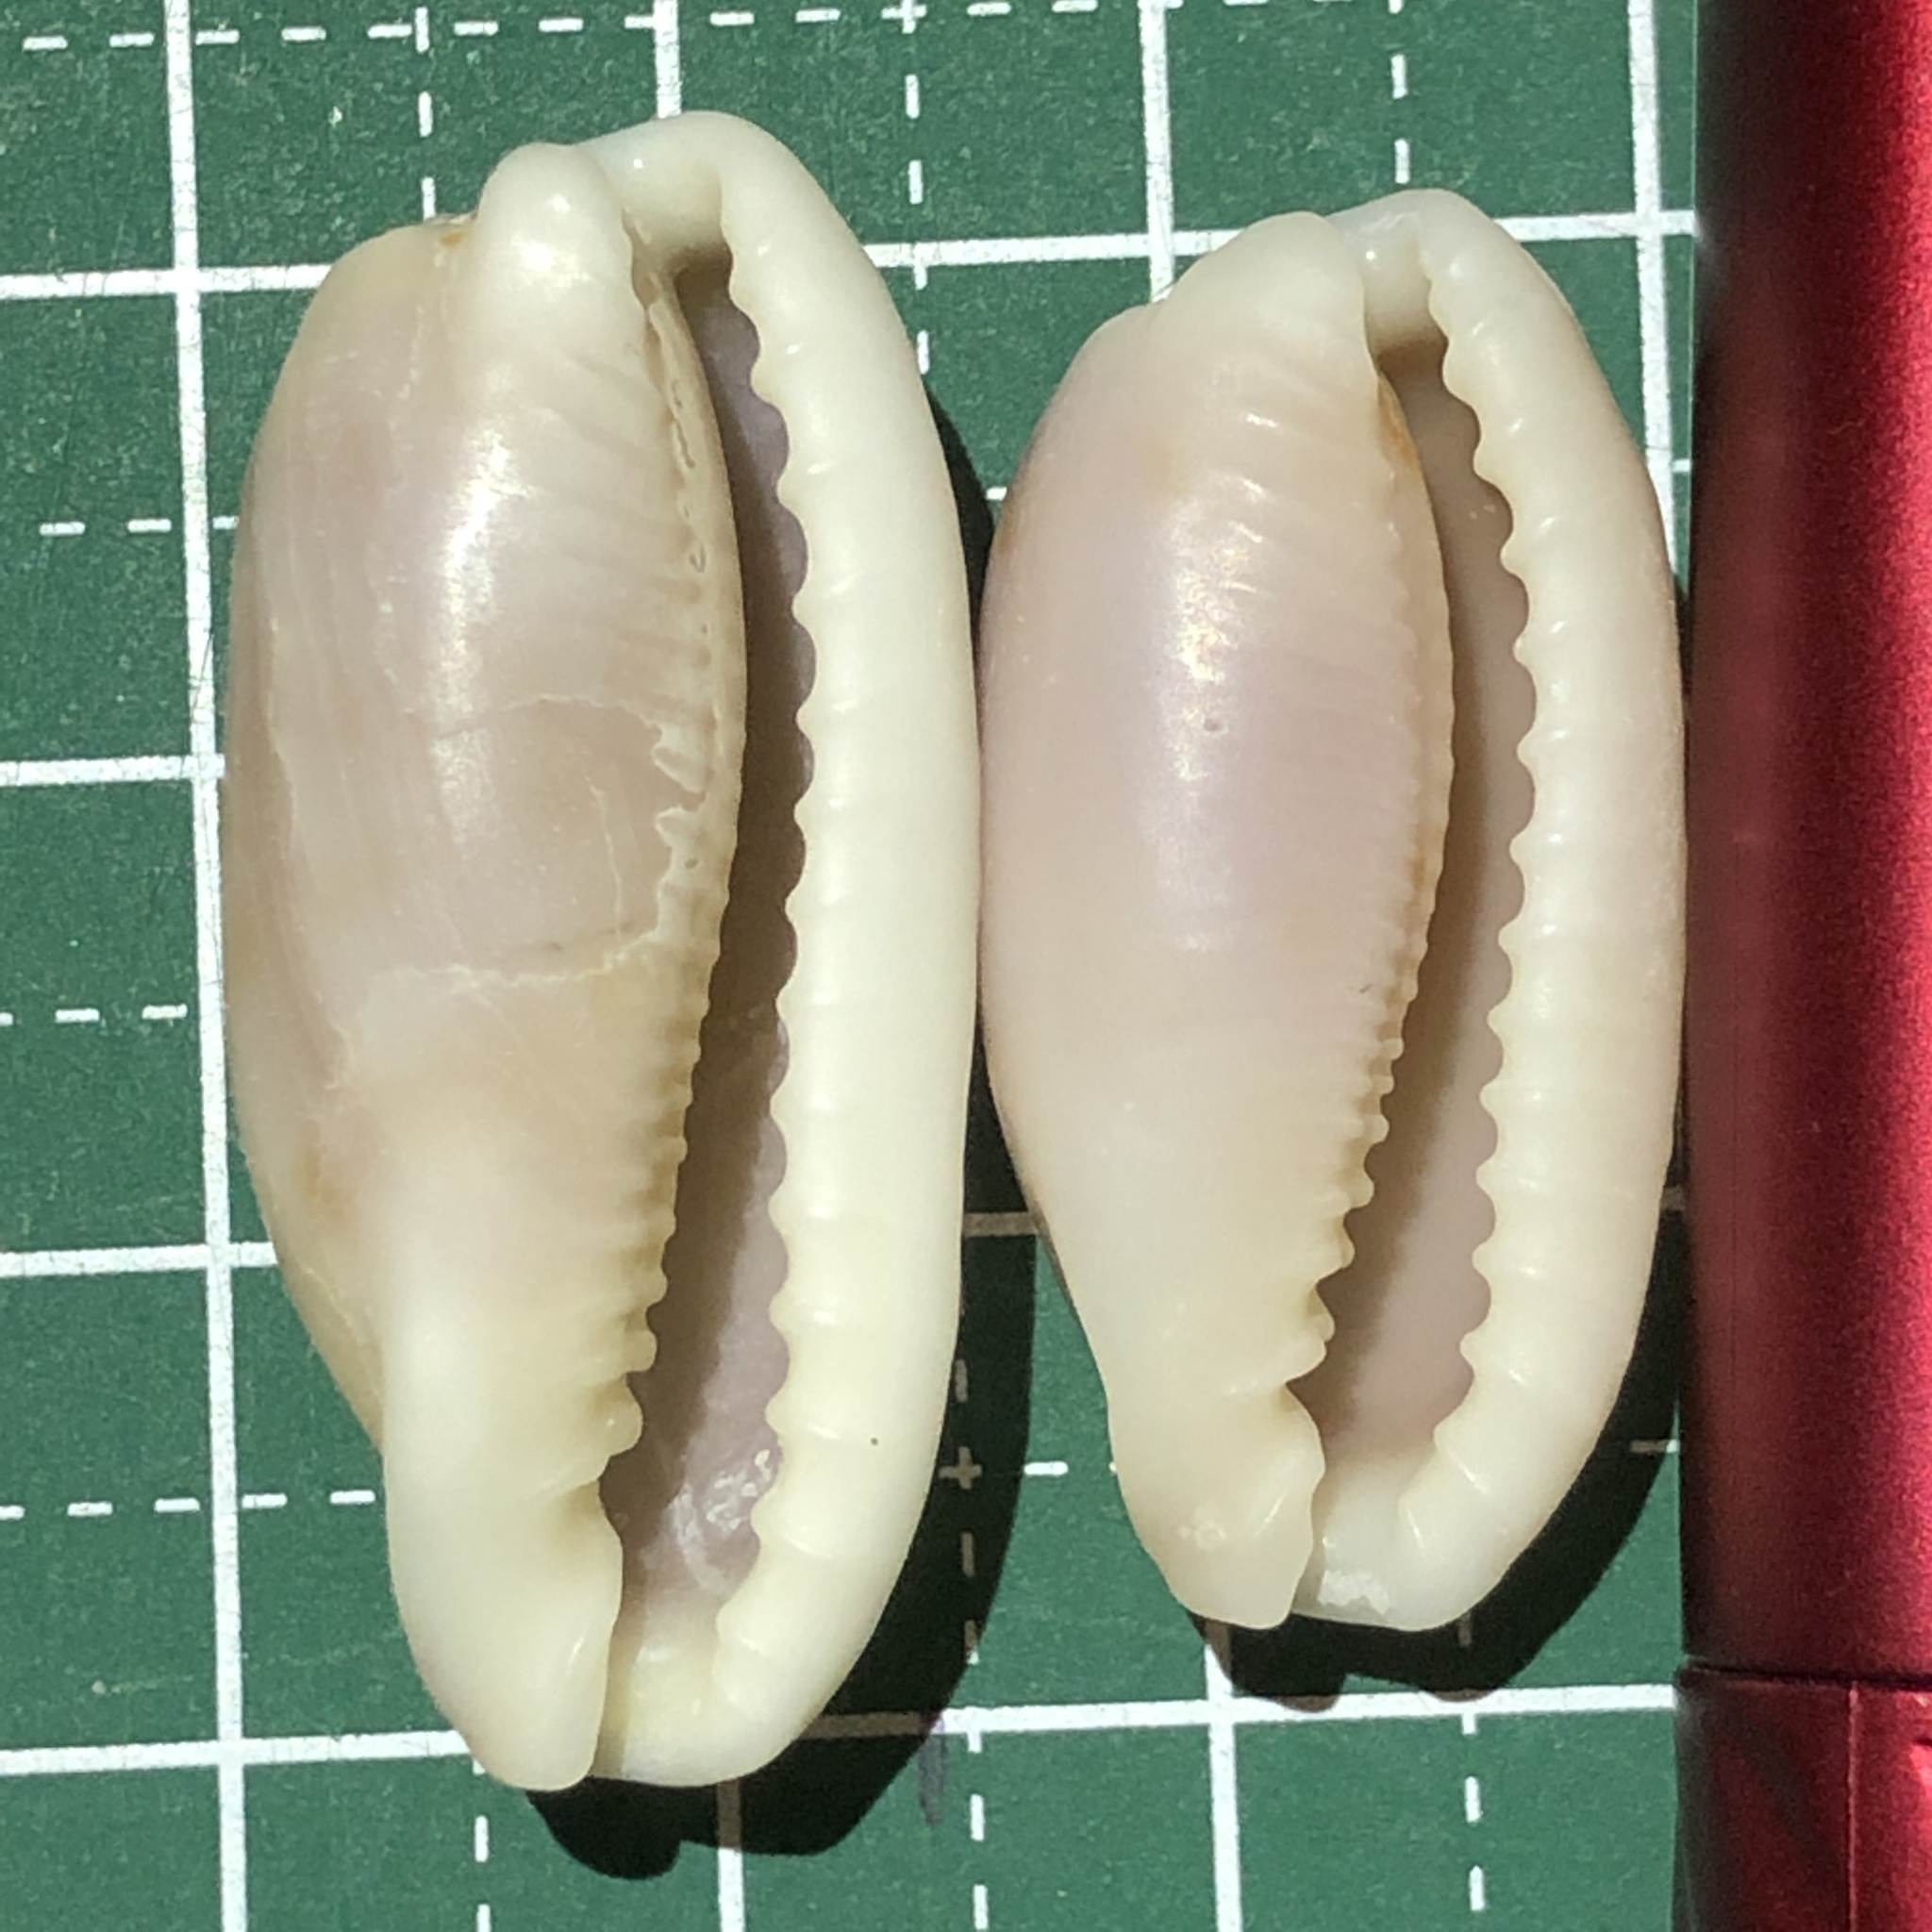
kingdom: Animalia
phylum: Mollusca
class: Gastropoda
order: Littorinimorpha
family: Cypraeidae
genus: Erronea
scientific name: Erronea cylindrica
